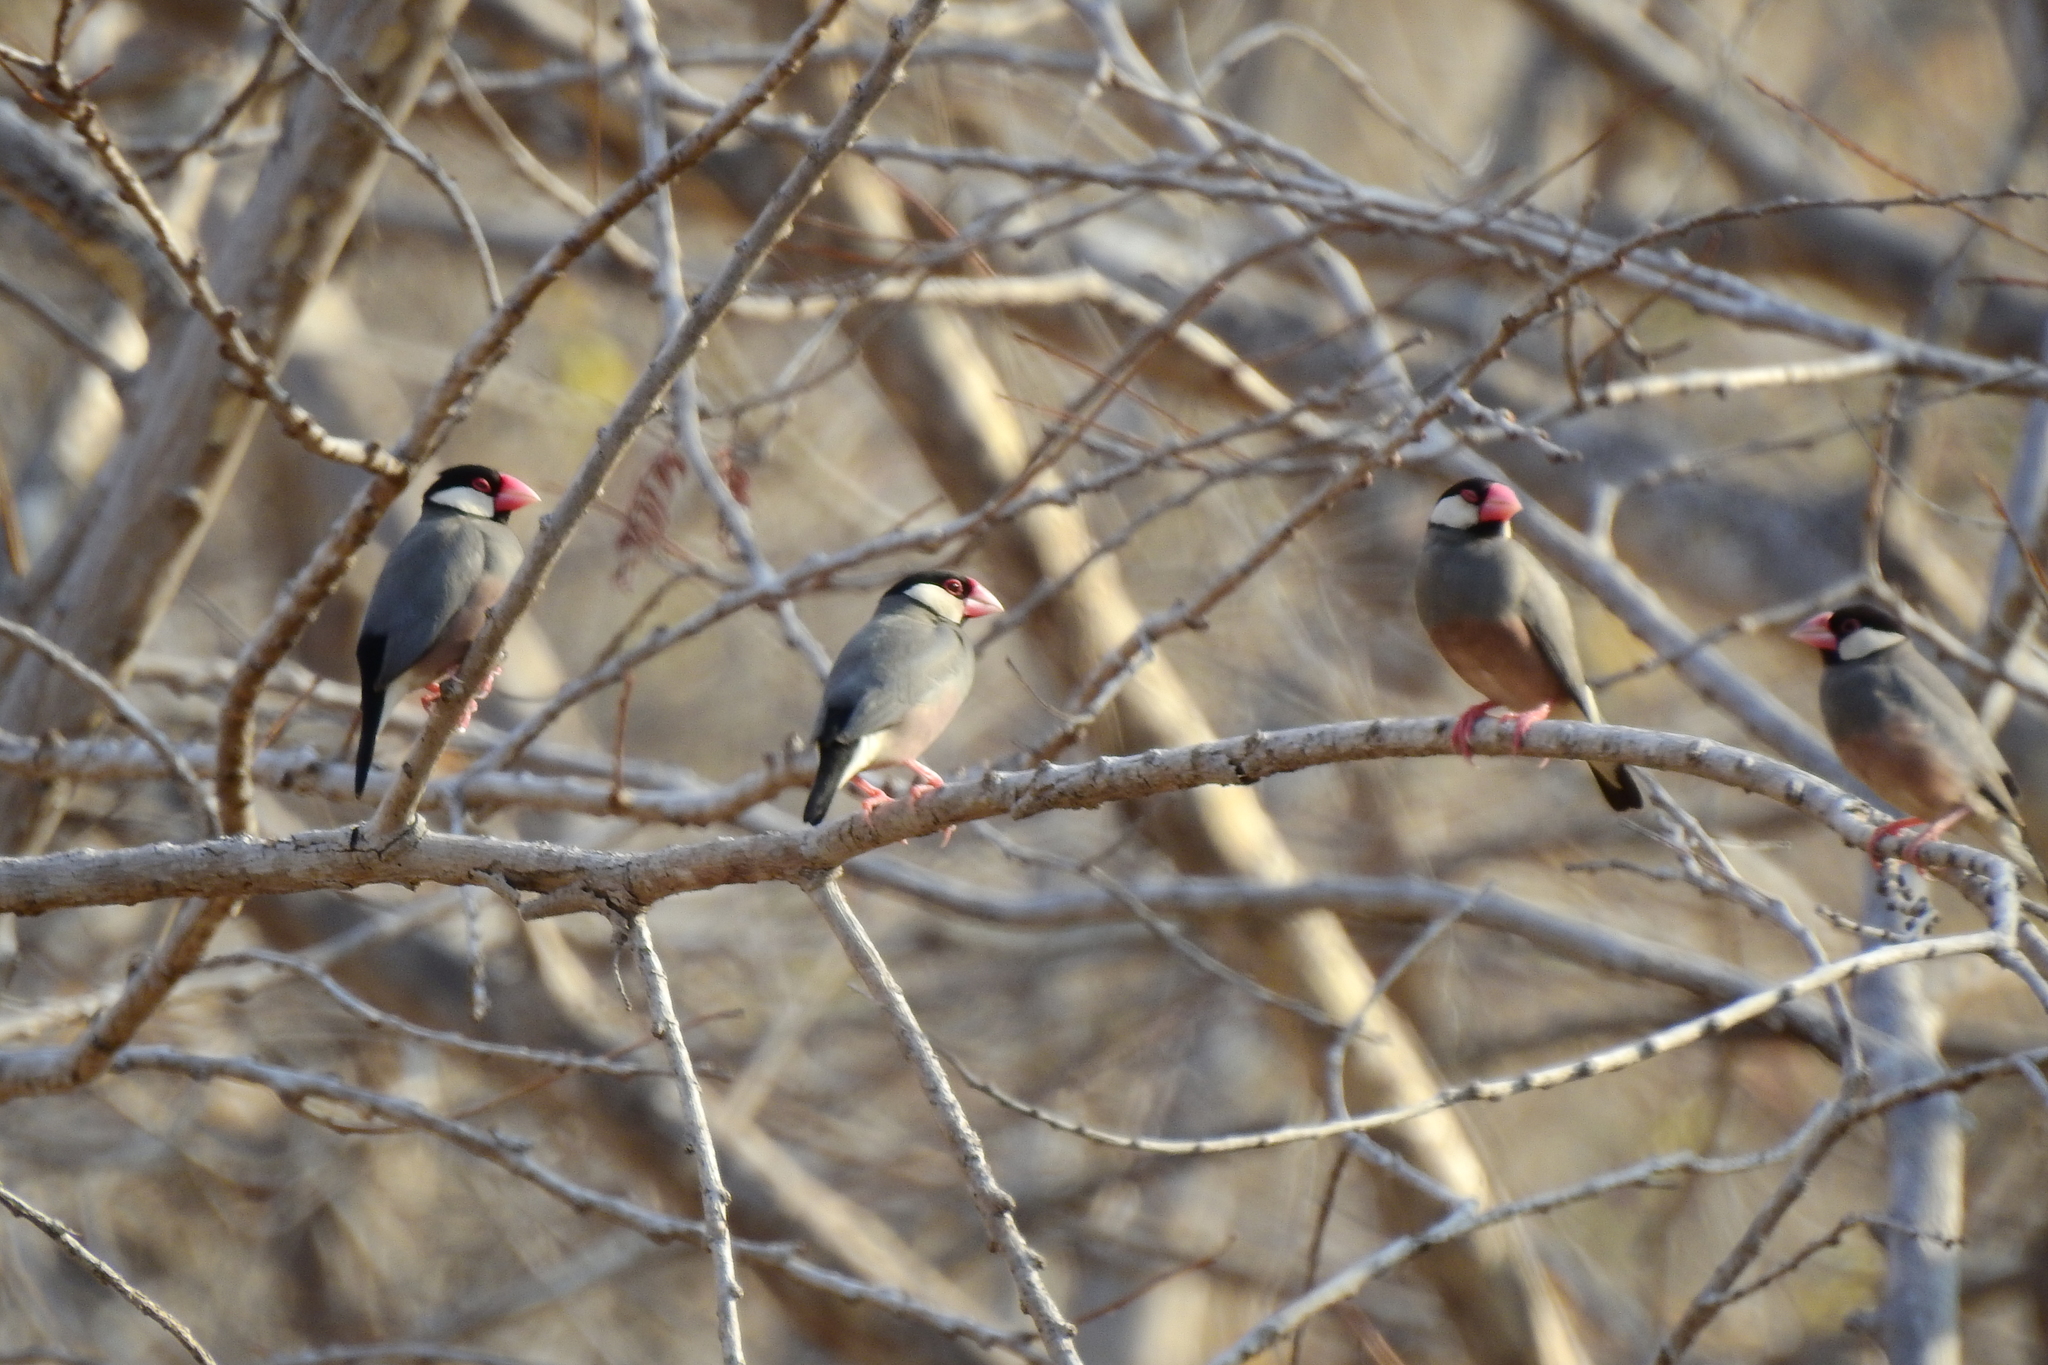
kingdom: Animalia
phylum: Chordata
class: Aves
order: Passeriformes
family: Estrildidae
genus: Lonchura
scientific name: Lonchura oryzivora
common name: Java sparrow
